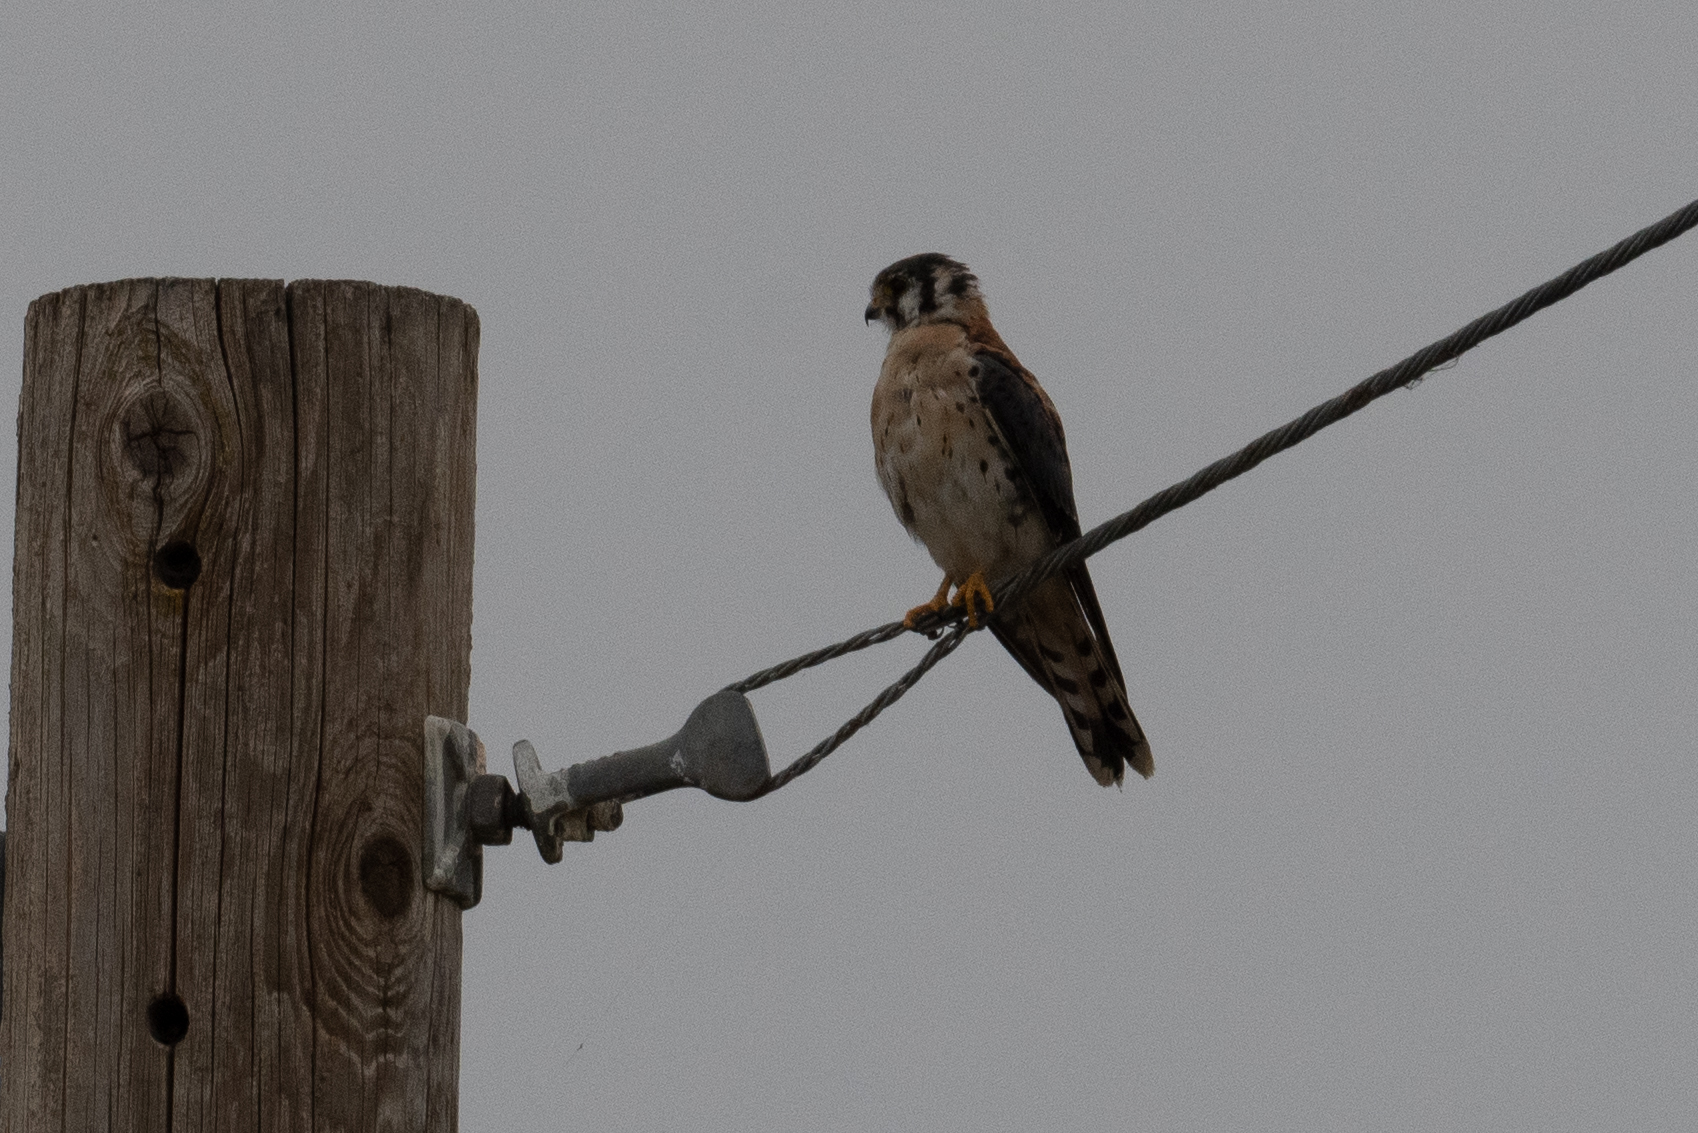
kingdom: Animalia
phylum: Chordata
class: Aves
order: Falconiformes
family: Falconidae
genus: Falco
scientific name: Falco sparverius
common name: American kestrel
